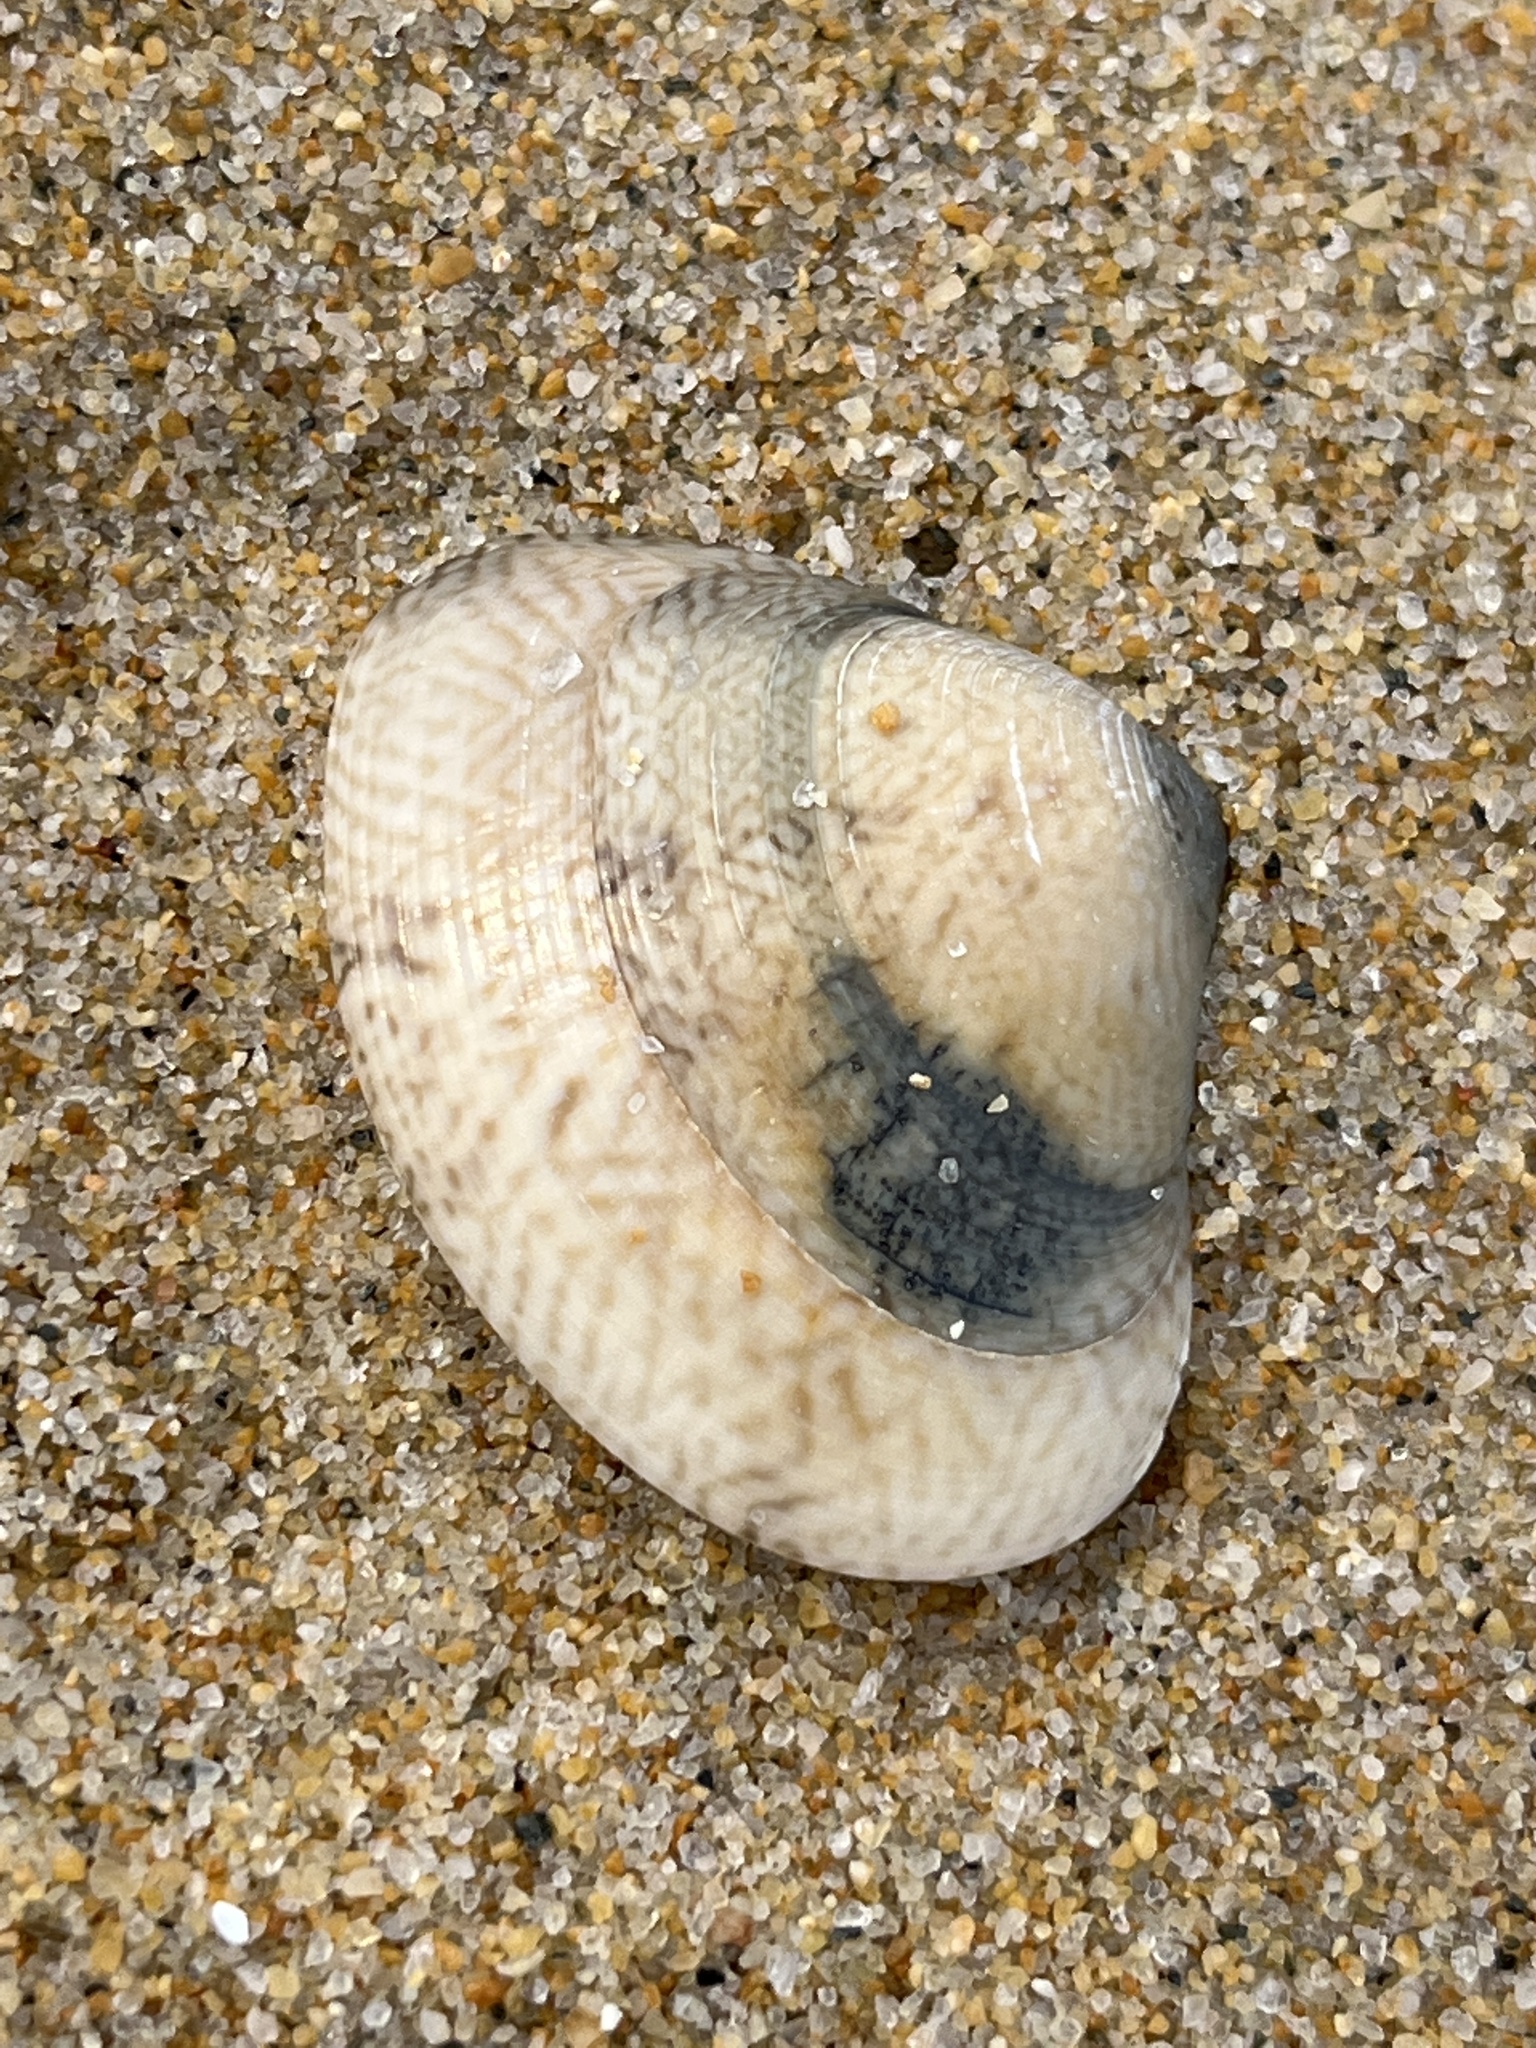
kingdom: Animalia
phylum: Mollusca
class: Bivalvia
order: Venerida
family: Veneridae
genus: Macridiscus
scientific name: Macridiscus aequilatera
